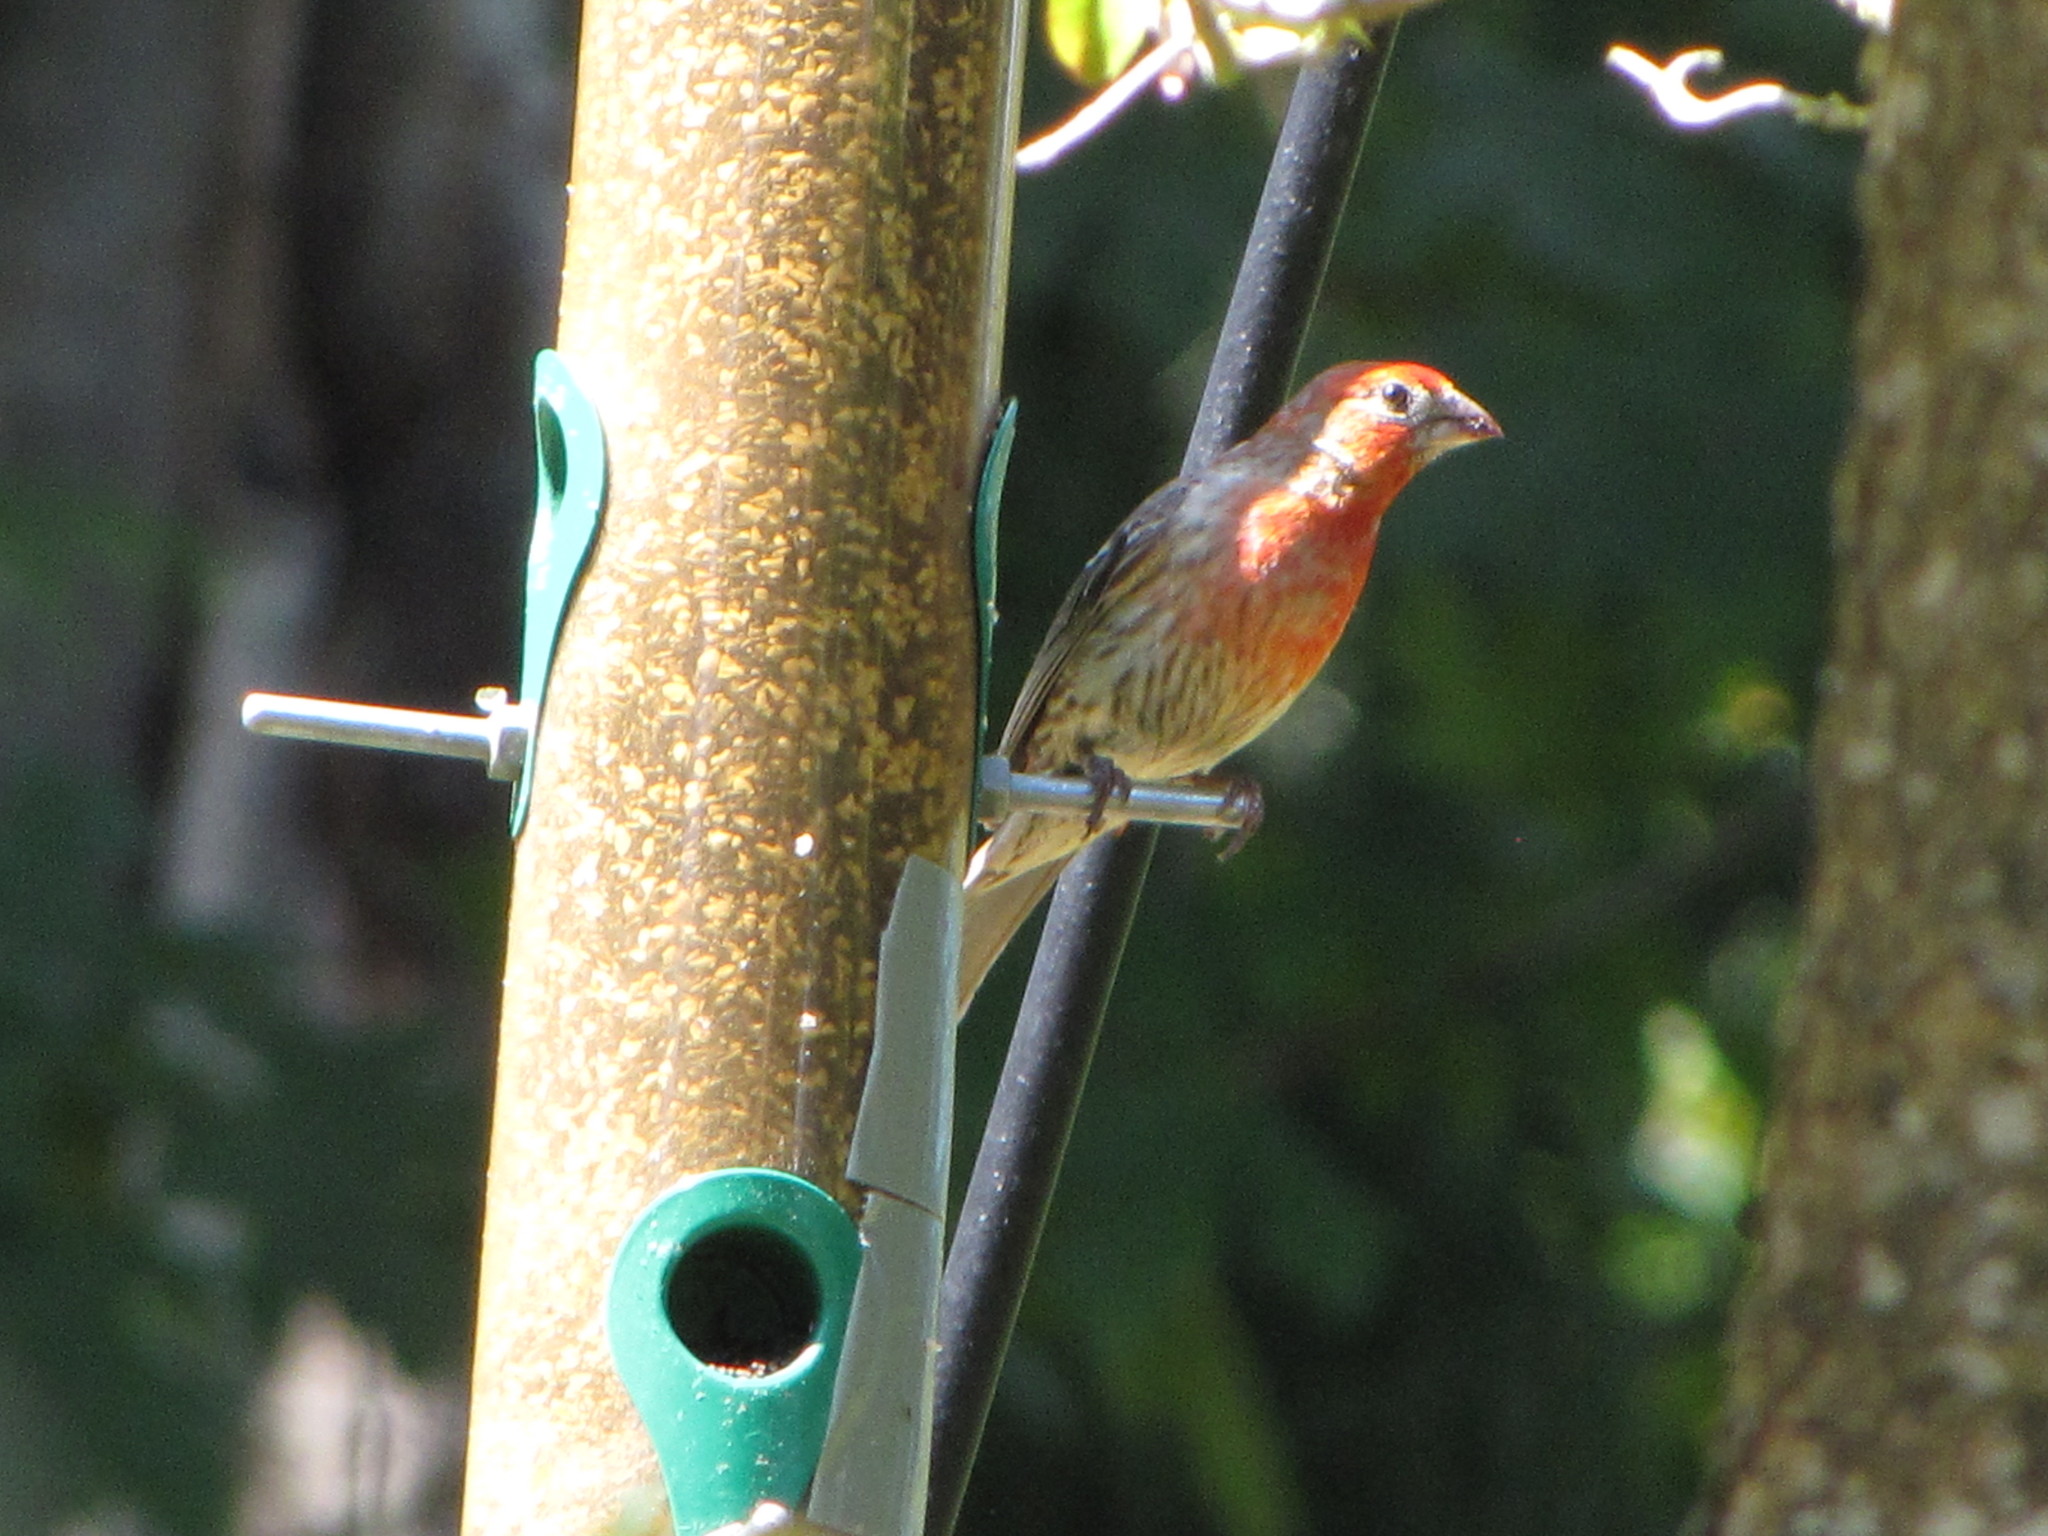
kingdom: Animalia
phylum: Chordata
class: Aves
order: Passeriformes
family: Fringillidae
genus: Haemorhous
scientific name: Haemorhous mexicanus
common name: House finch
